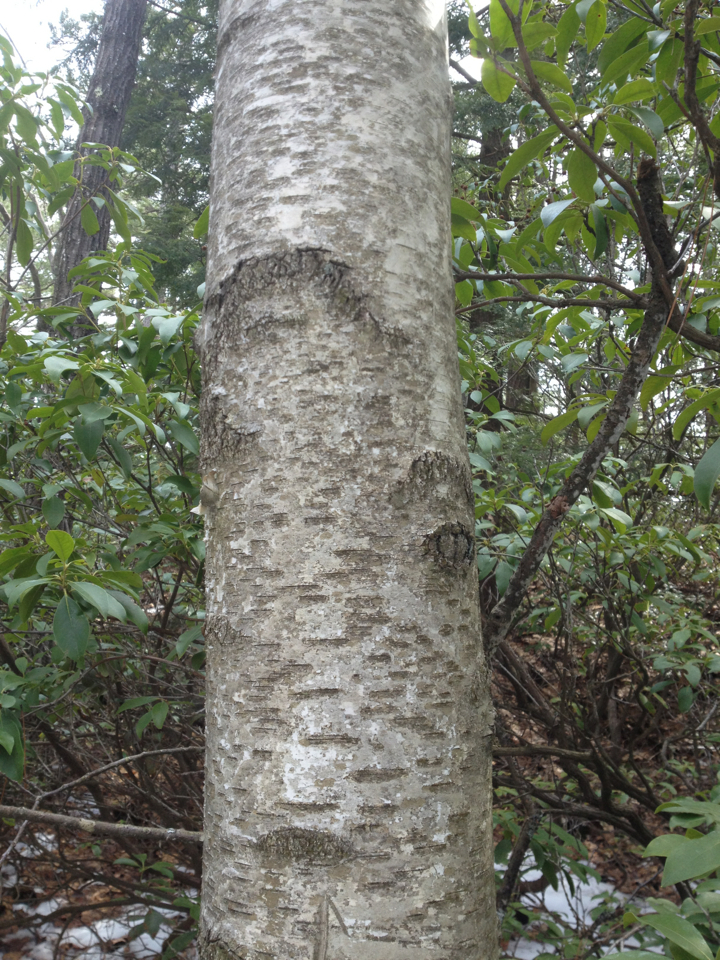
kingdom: Plantae
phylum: Tracheophyta
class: Magnoliopsida
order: Fagales
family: Betulaceae
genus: Betula
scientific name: Betula populifolia
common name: Fire birch
